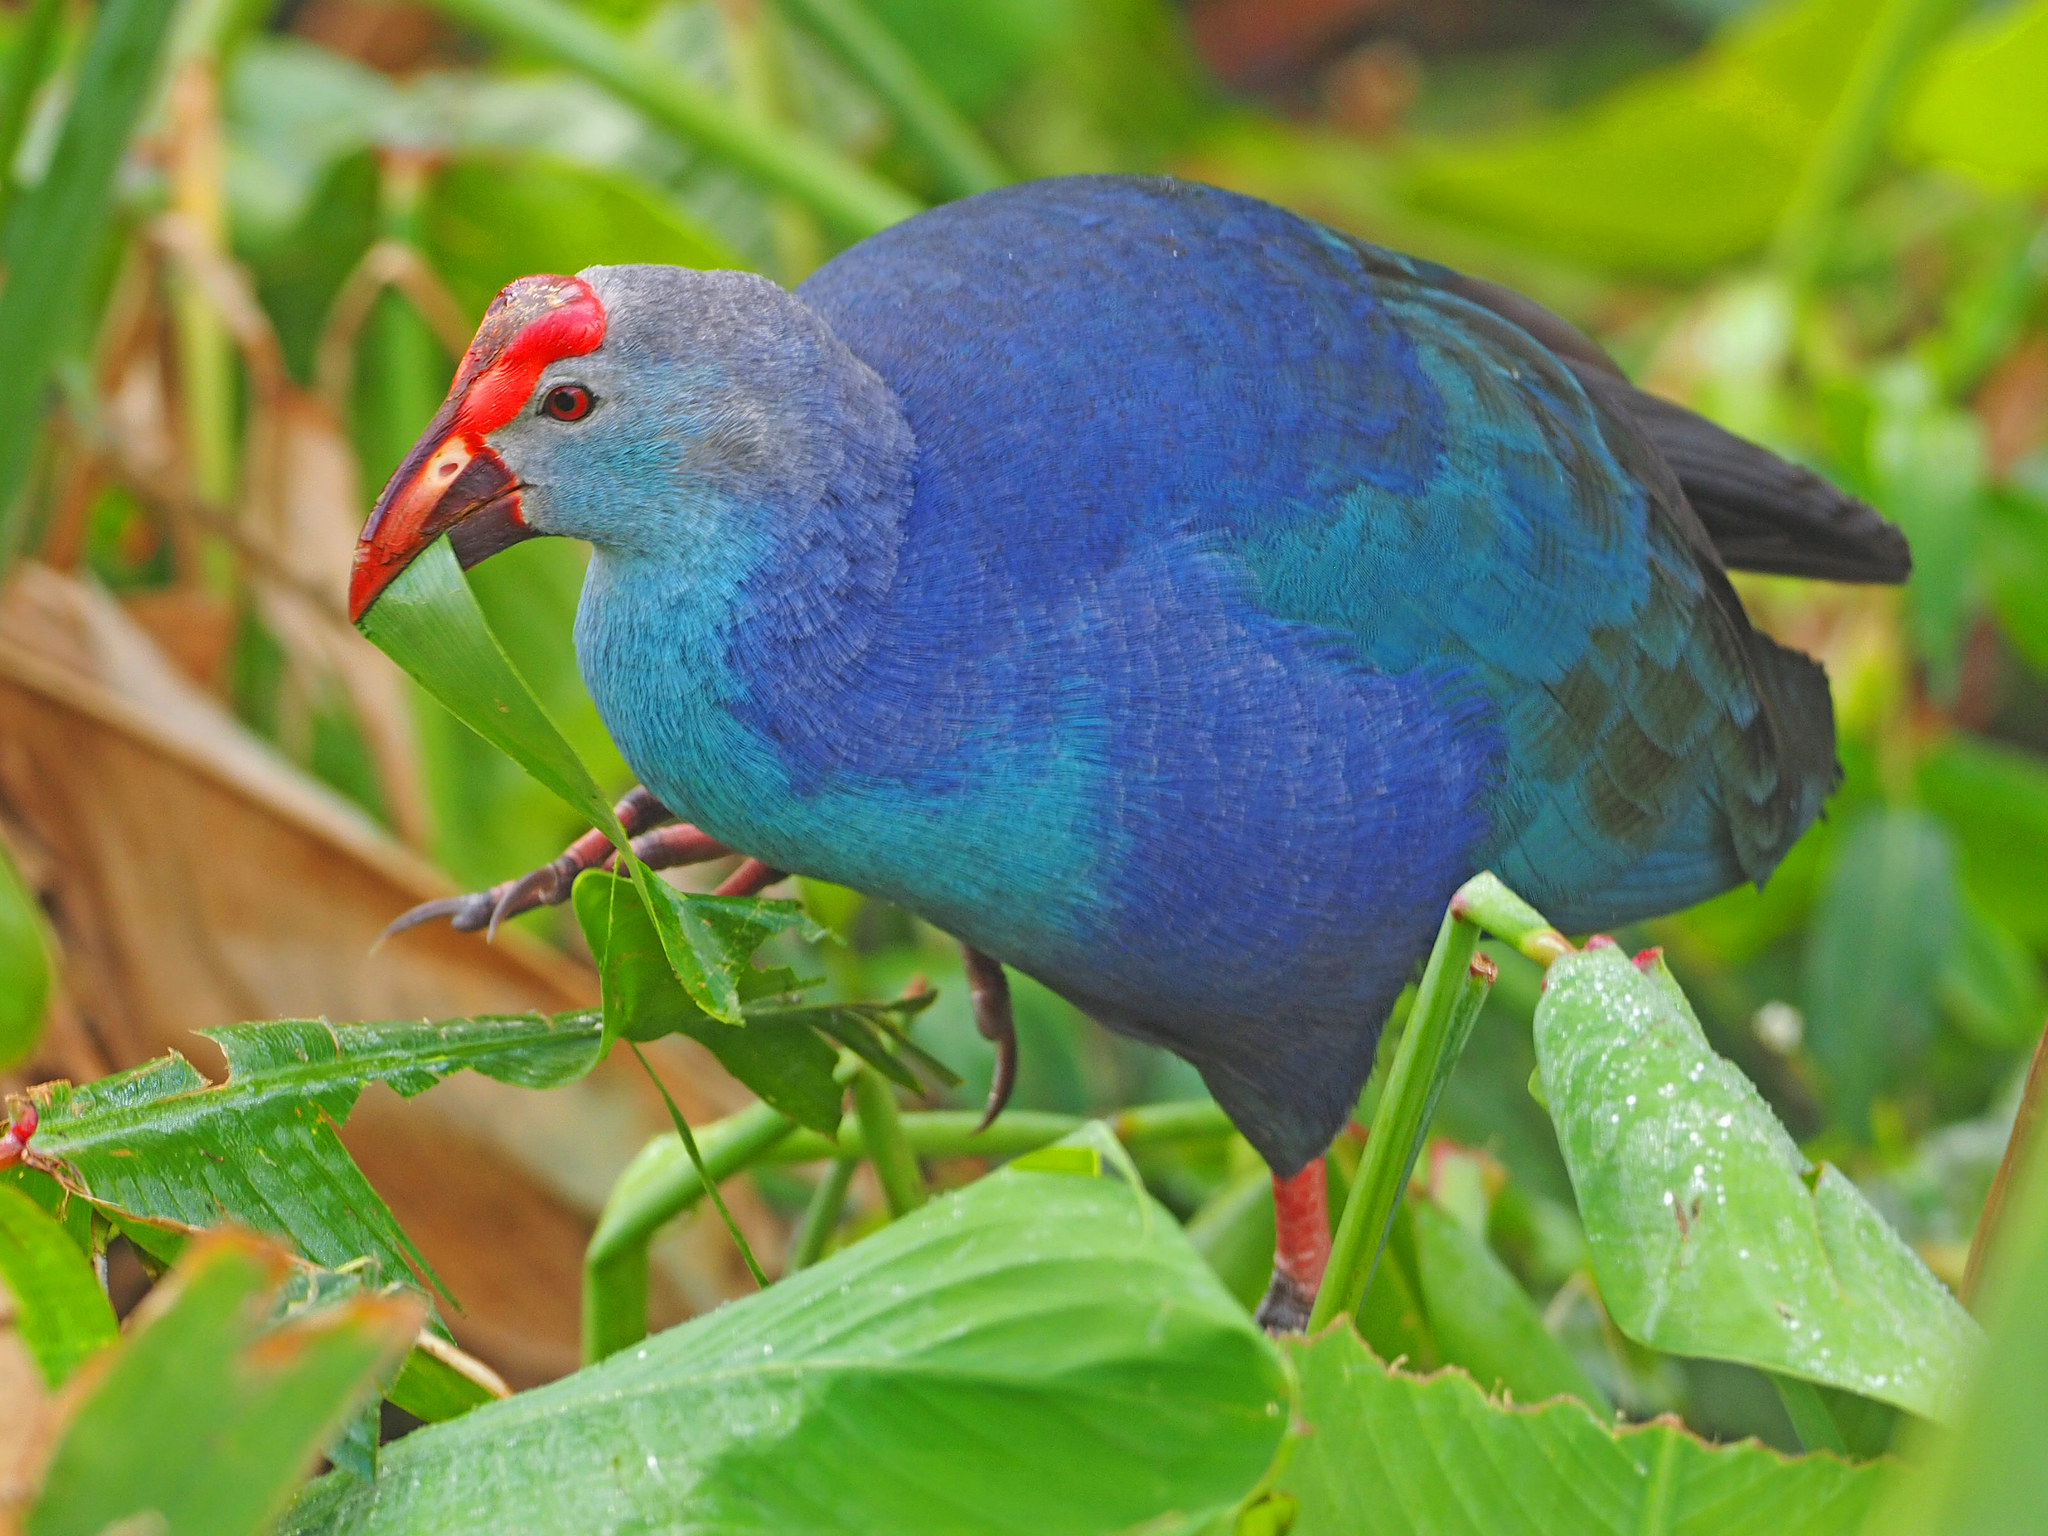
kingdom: Animalia
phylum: Chordata
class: Aves
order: Gruiformes
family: Rallidae
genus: Porphyrio
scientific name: Porphyrio porphyrio
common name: Purple swamphen
